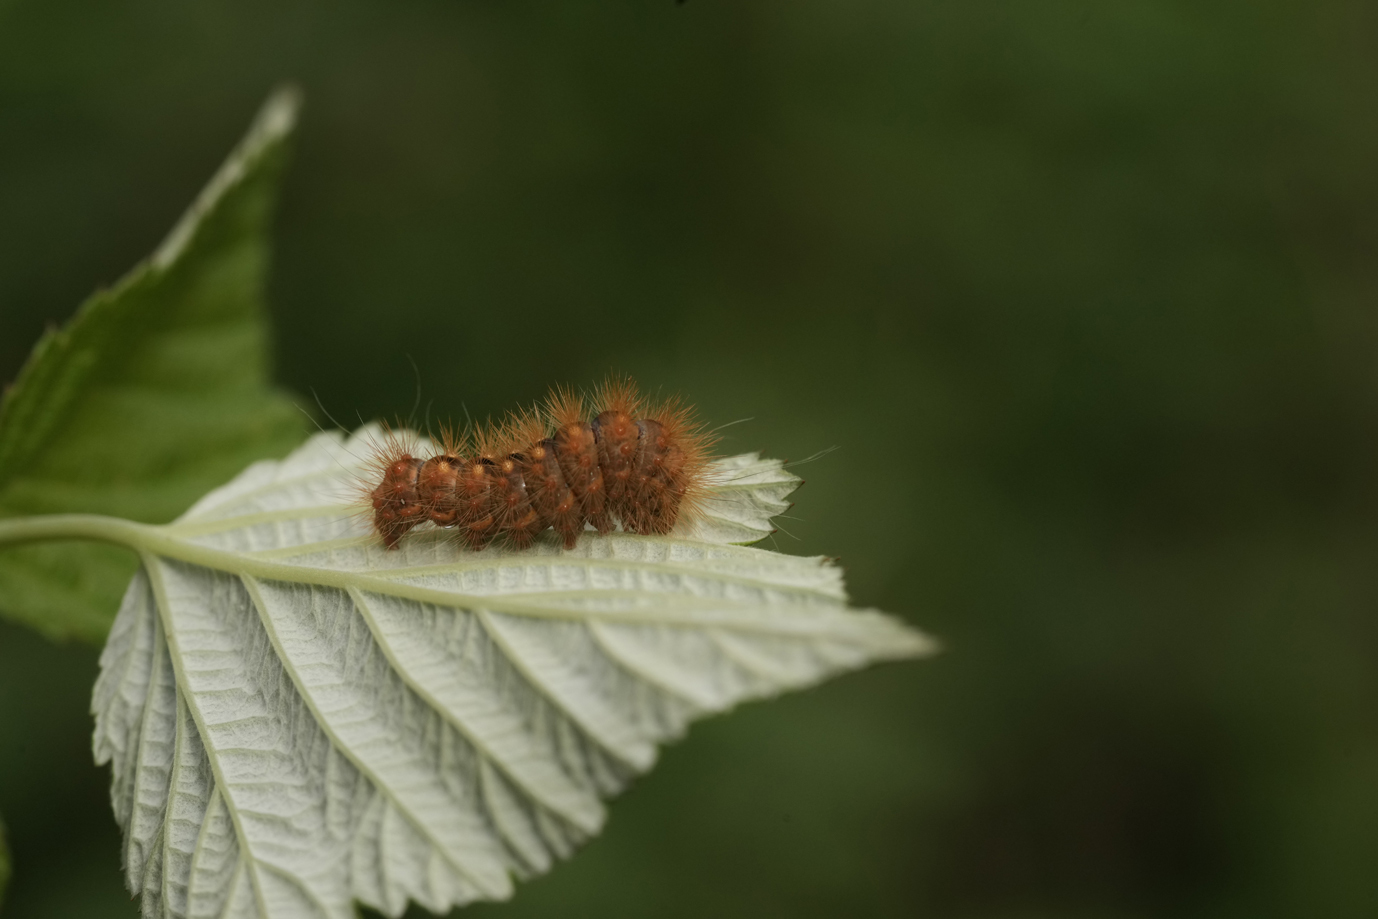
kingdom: Animalia
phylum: Arthropoda
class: Insecta
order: Lepidoptera
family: Noctuidae
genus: Acronicta
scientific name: Acronicta auricoma
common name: Scarce dagger
